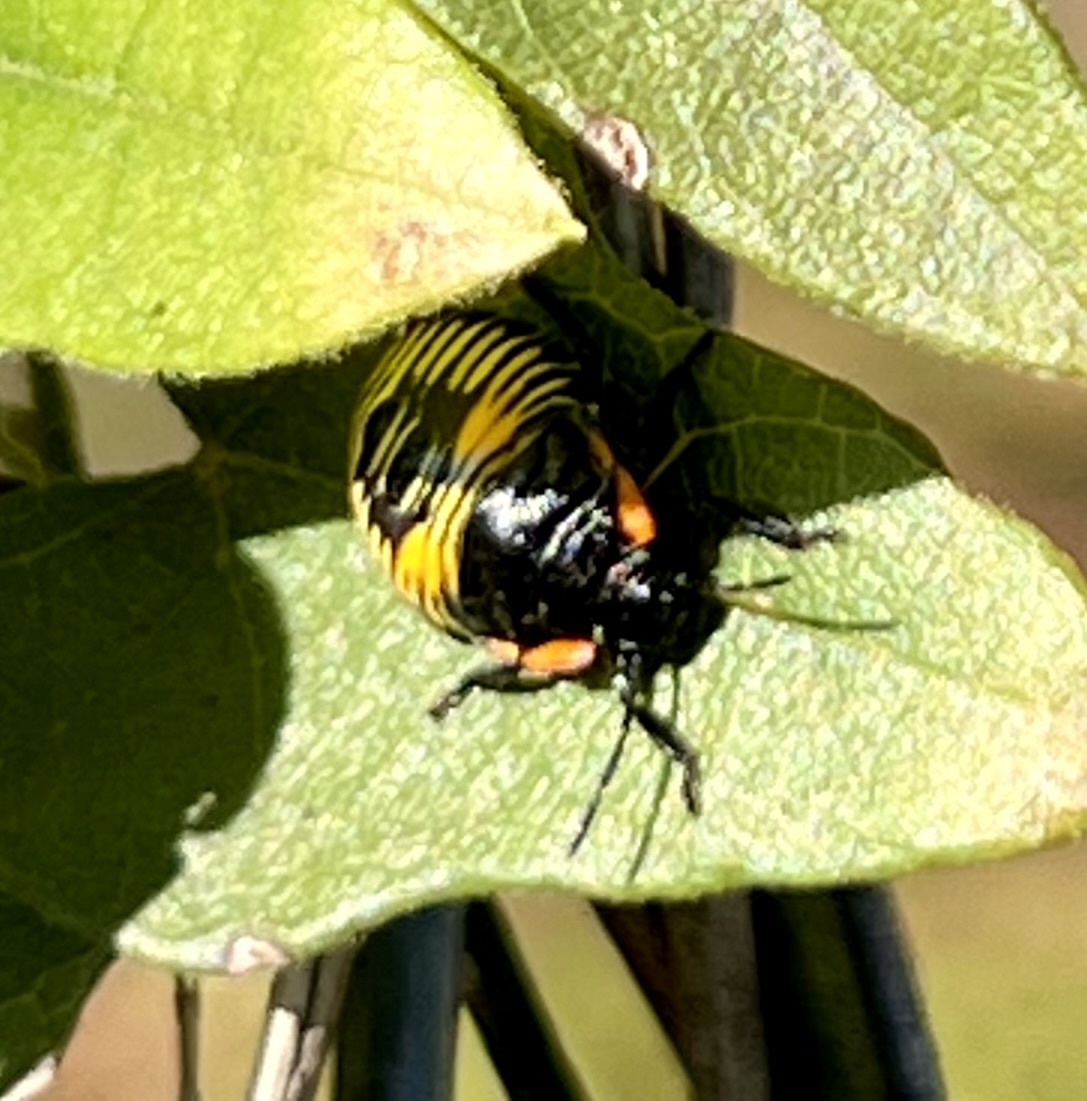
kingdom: Animalia
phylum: Arthropoda
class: Insecta
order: Hemiptera
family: Pentatomidae
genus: Chinavia
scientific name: Chinavia hilaris
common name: Green stink bug
